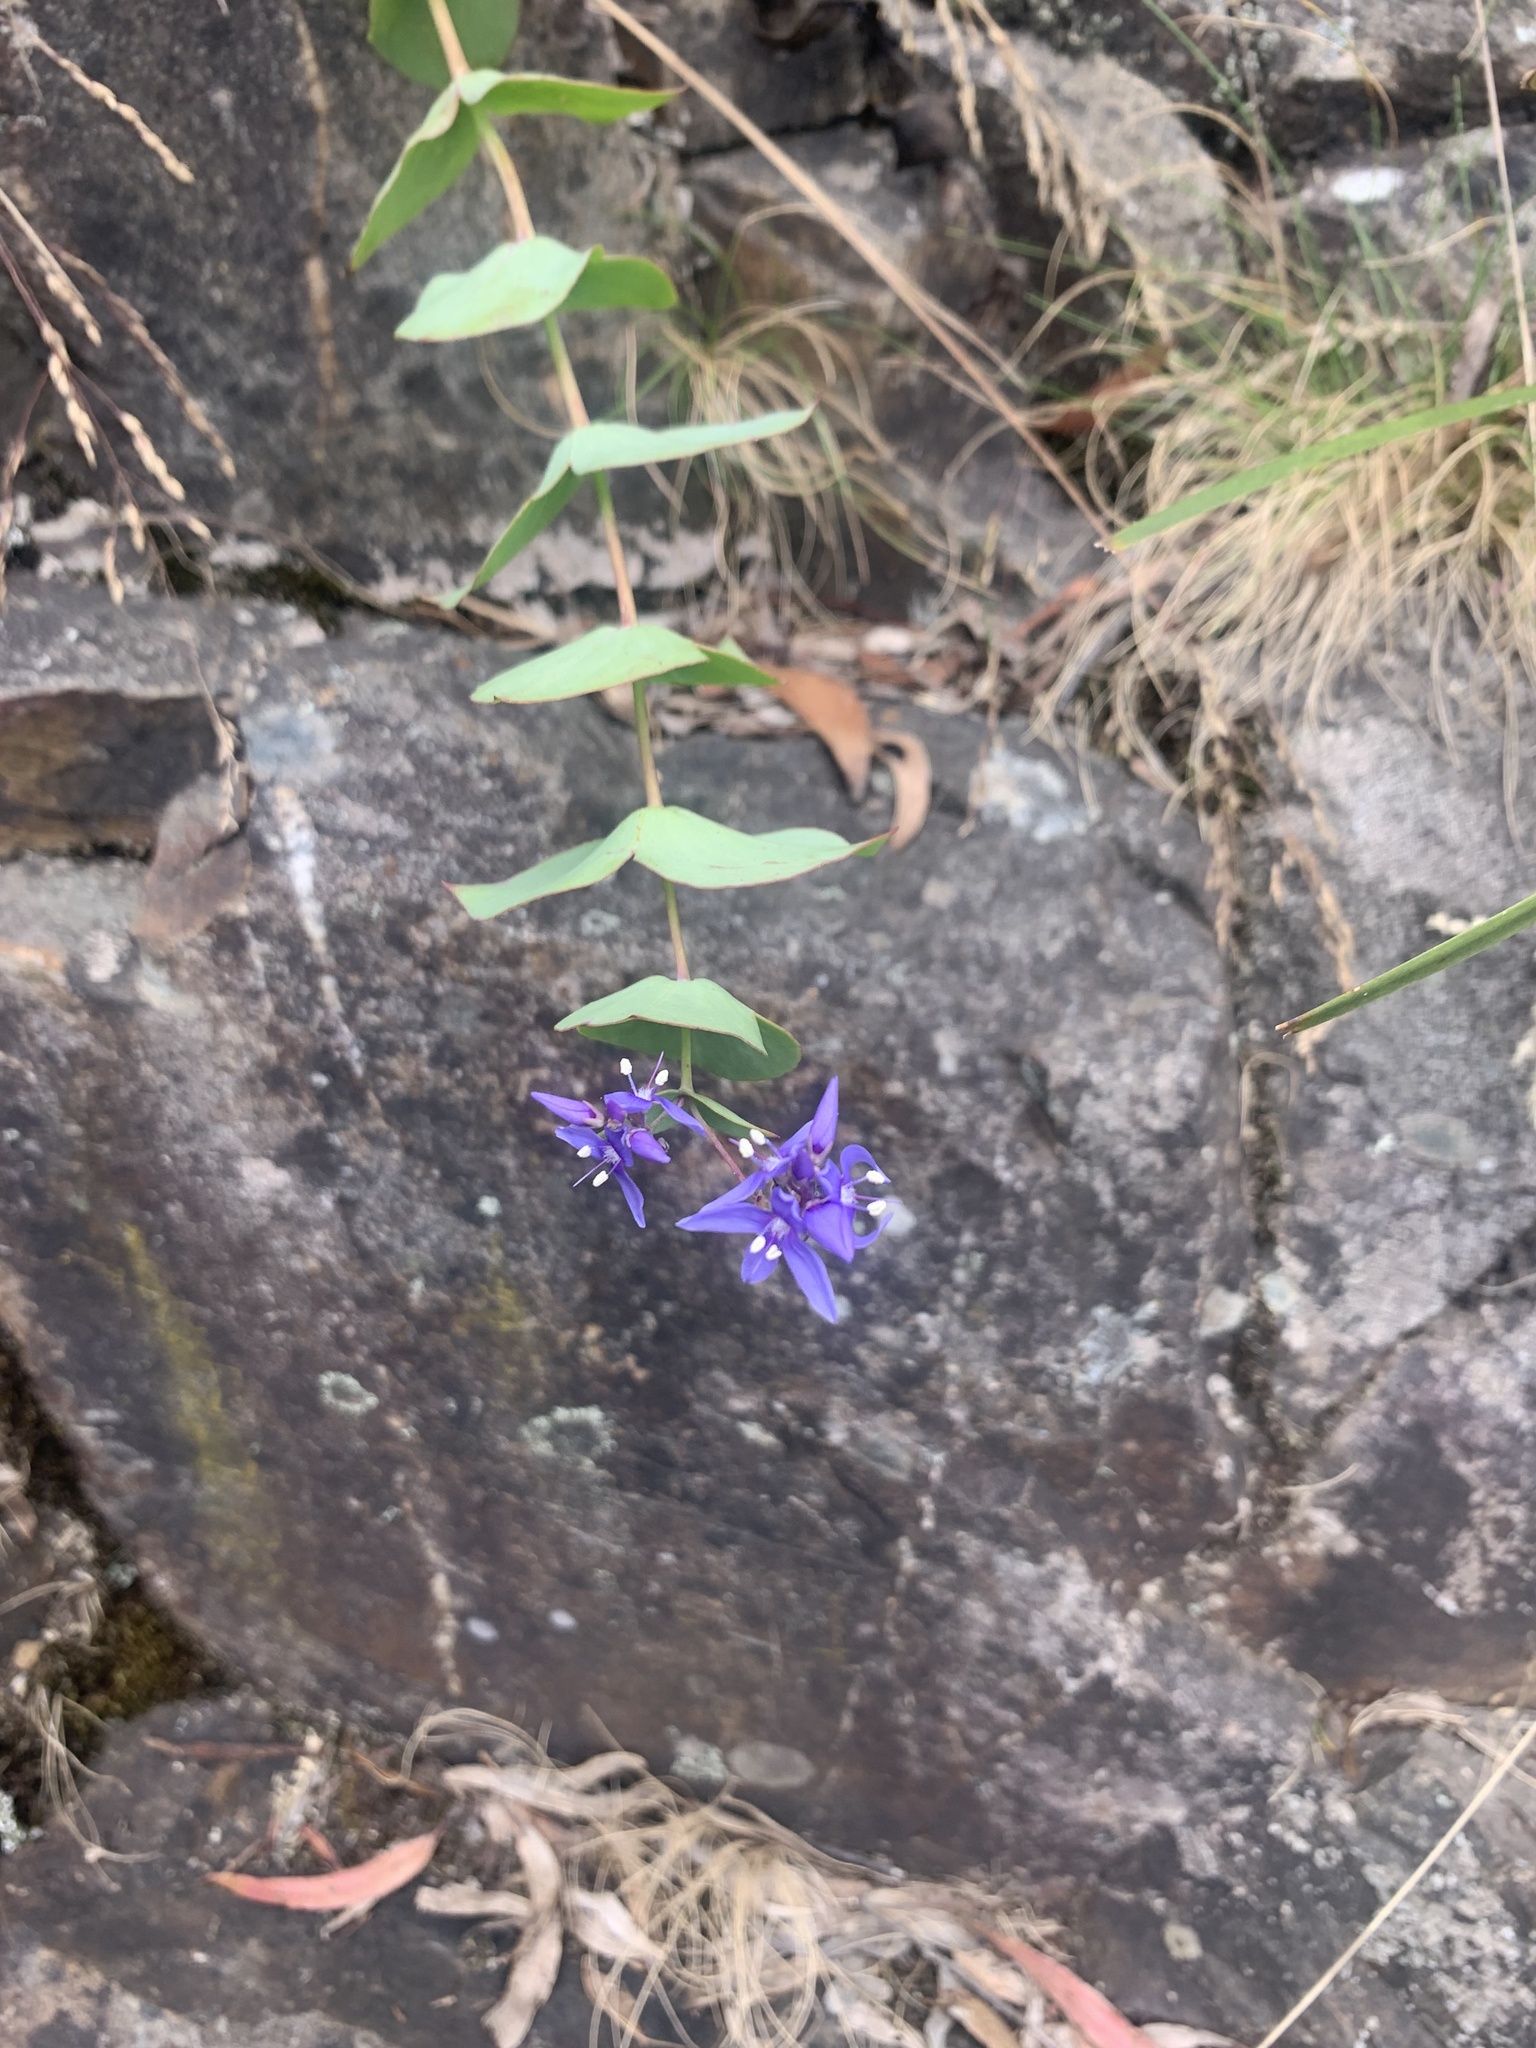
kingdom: Plantae
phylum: Tracheophyta
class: Magnoliopsida
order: Lamiales
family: Plantaginaceae
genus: Veronica
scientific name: Veronica perfoliata
